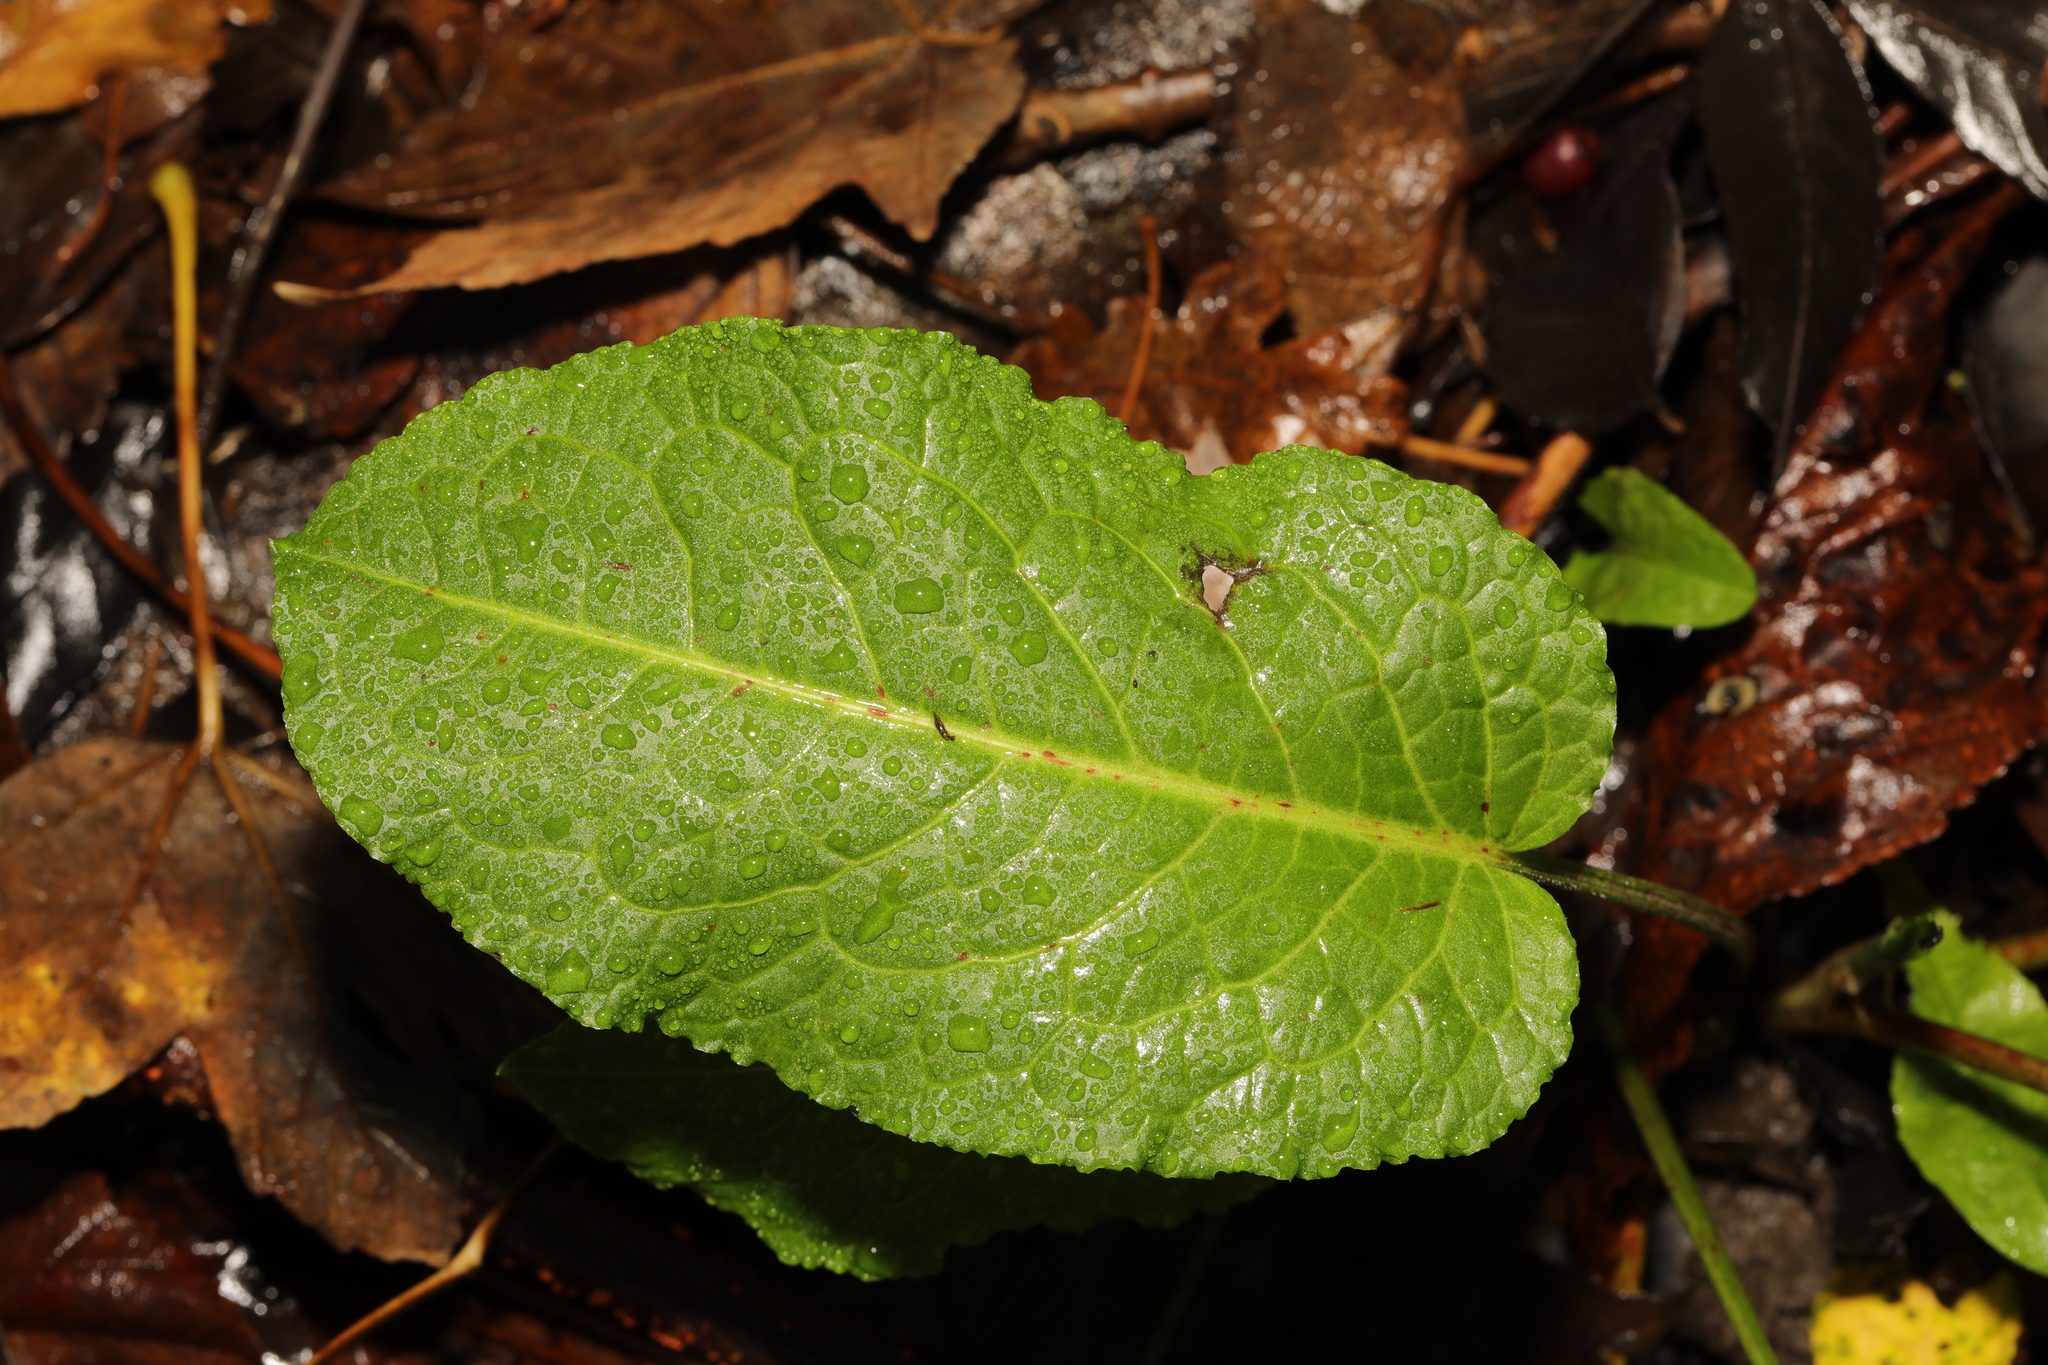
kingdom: Plantae
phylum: Tracheophyta
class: Magnoliopsida
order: Caryophyllales
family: Polygonaceae
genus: Rumex
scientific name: Rumex obtusifolius
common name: Bitter dock
